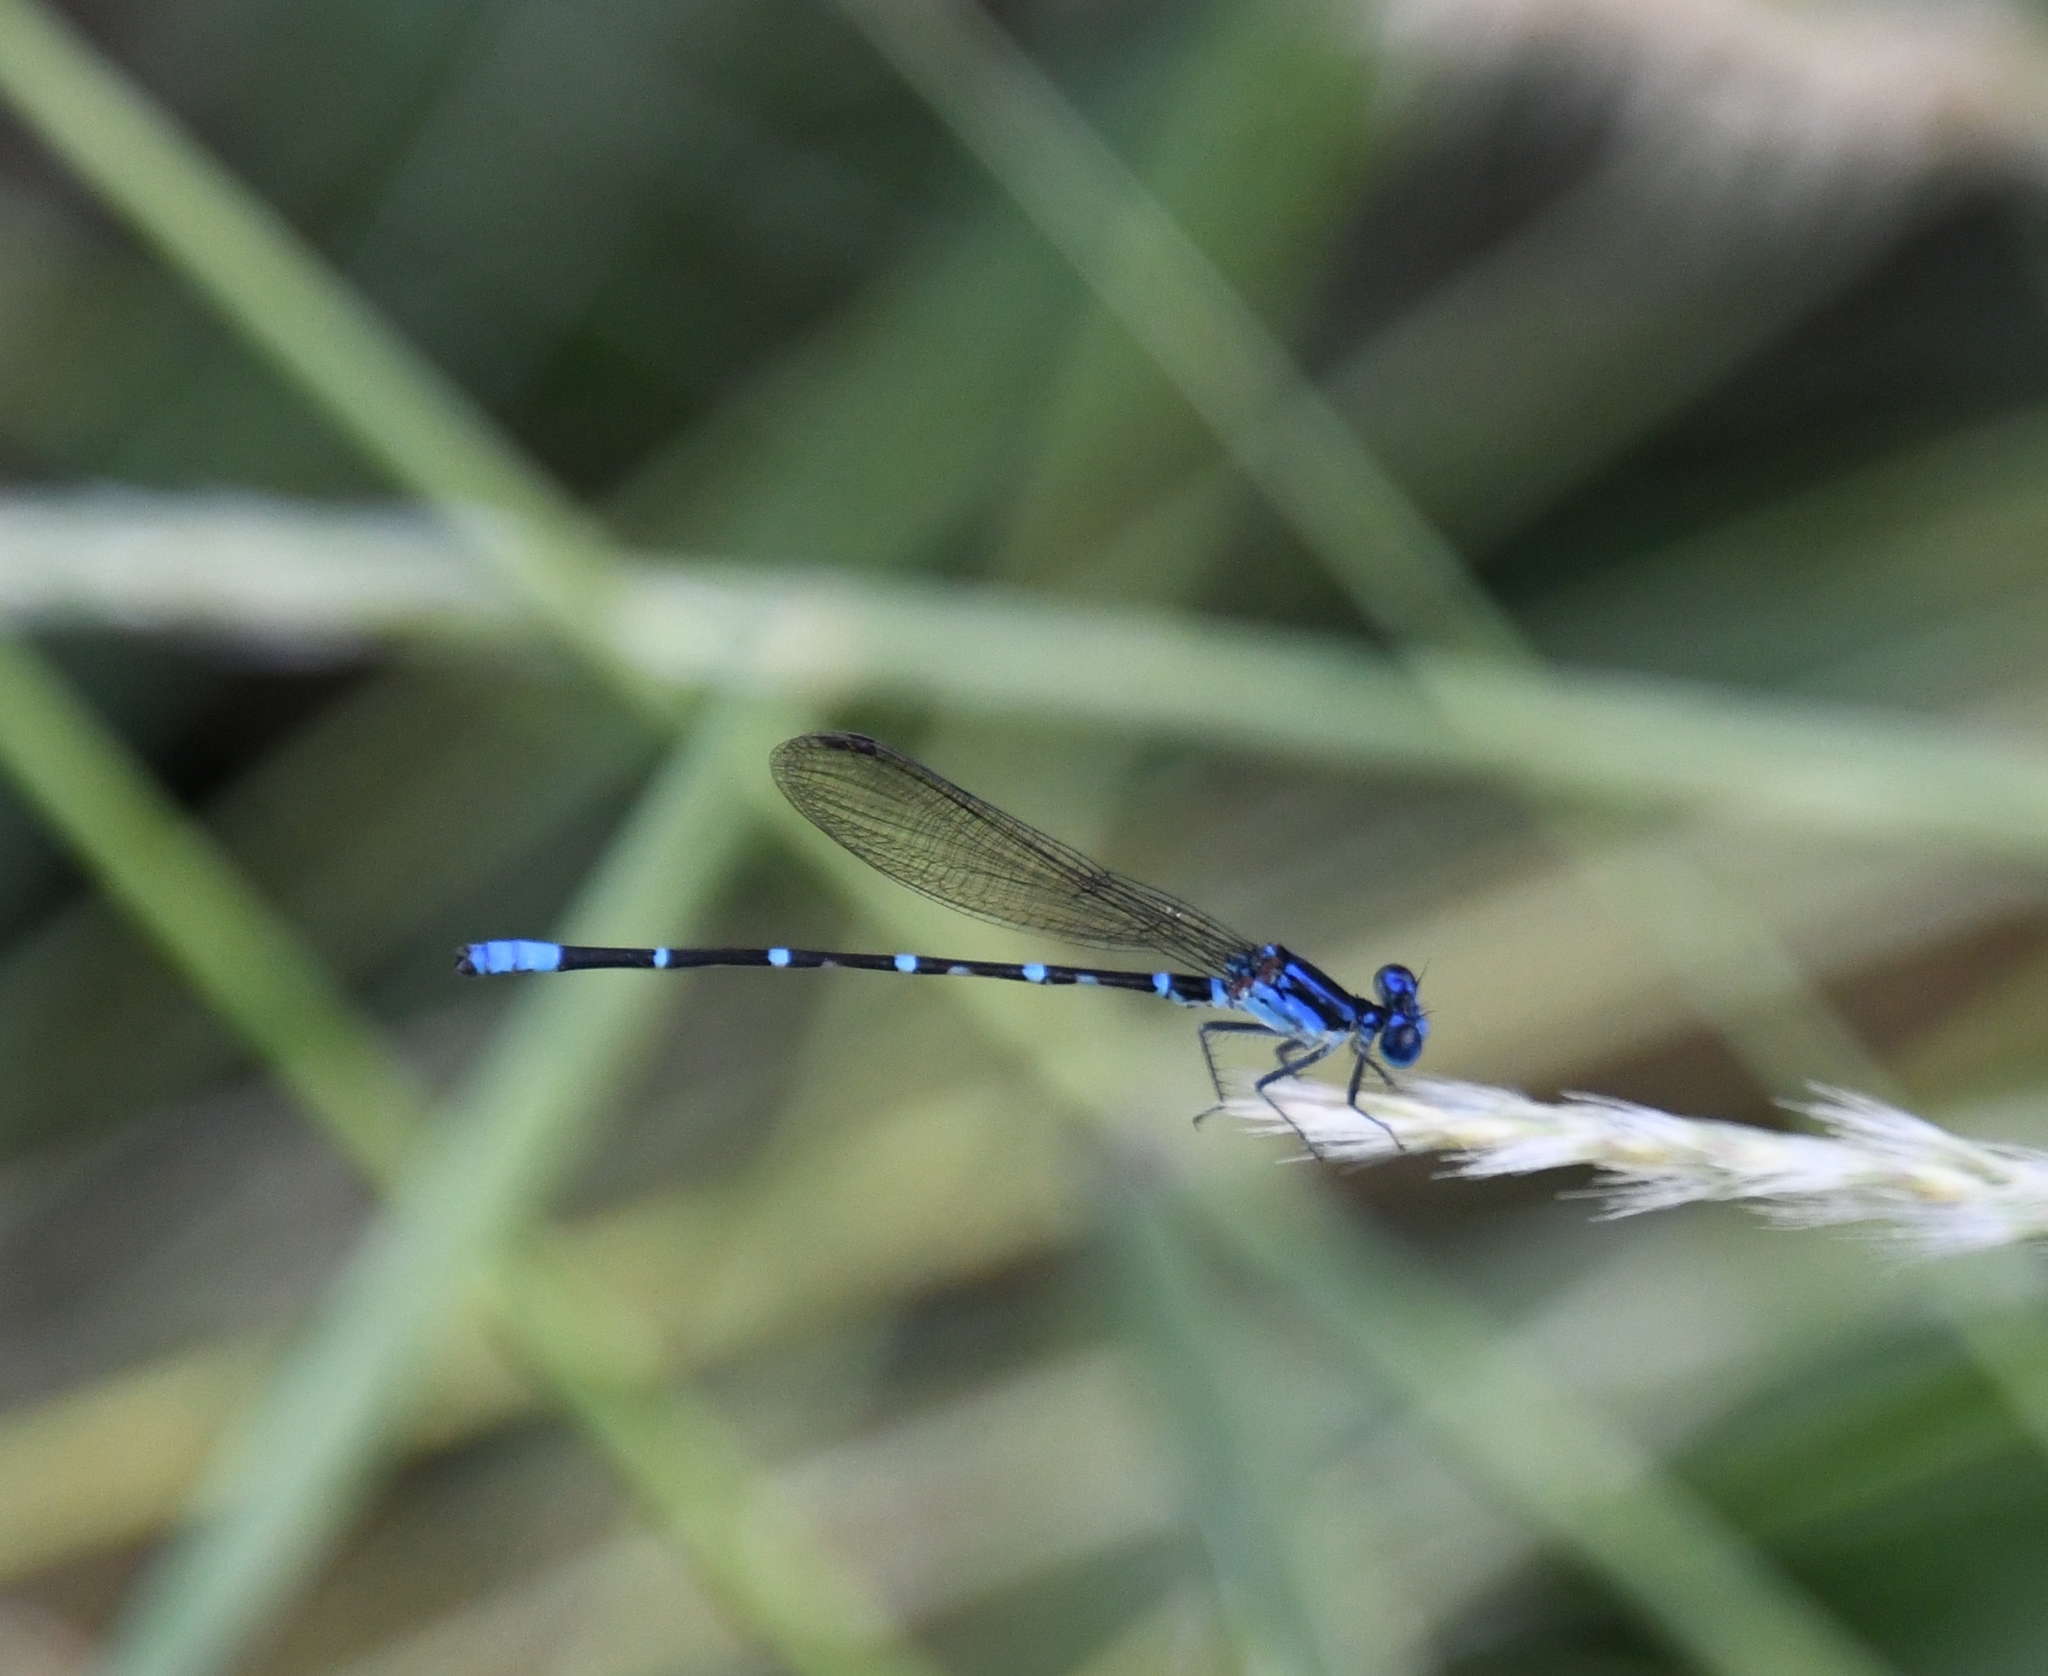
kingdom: Animalia
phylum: Arthropoda
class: Insecta
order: Odonata
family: Coenagrionidae
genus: Argia
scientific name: Argia sedula
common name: Blue-ringed dancer
